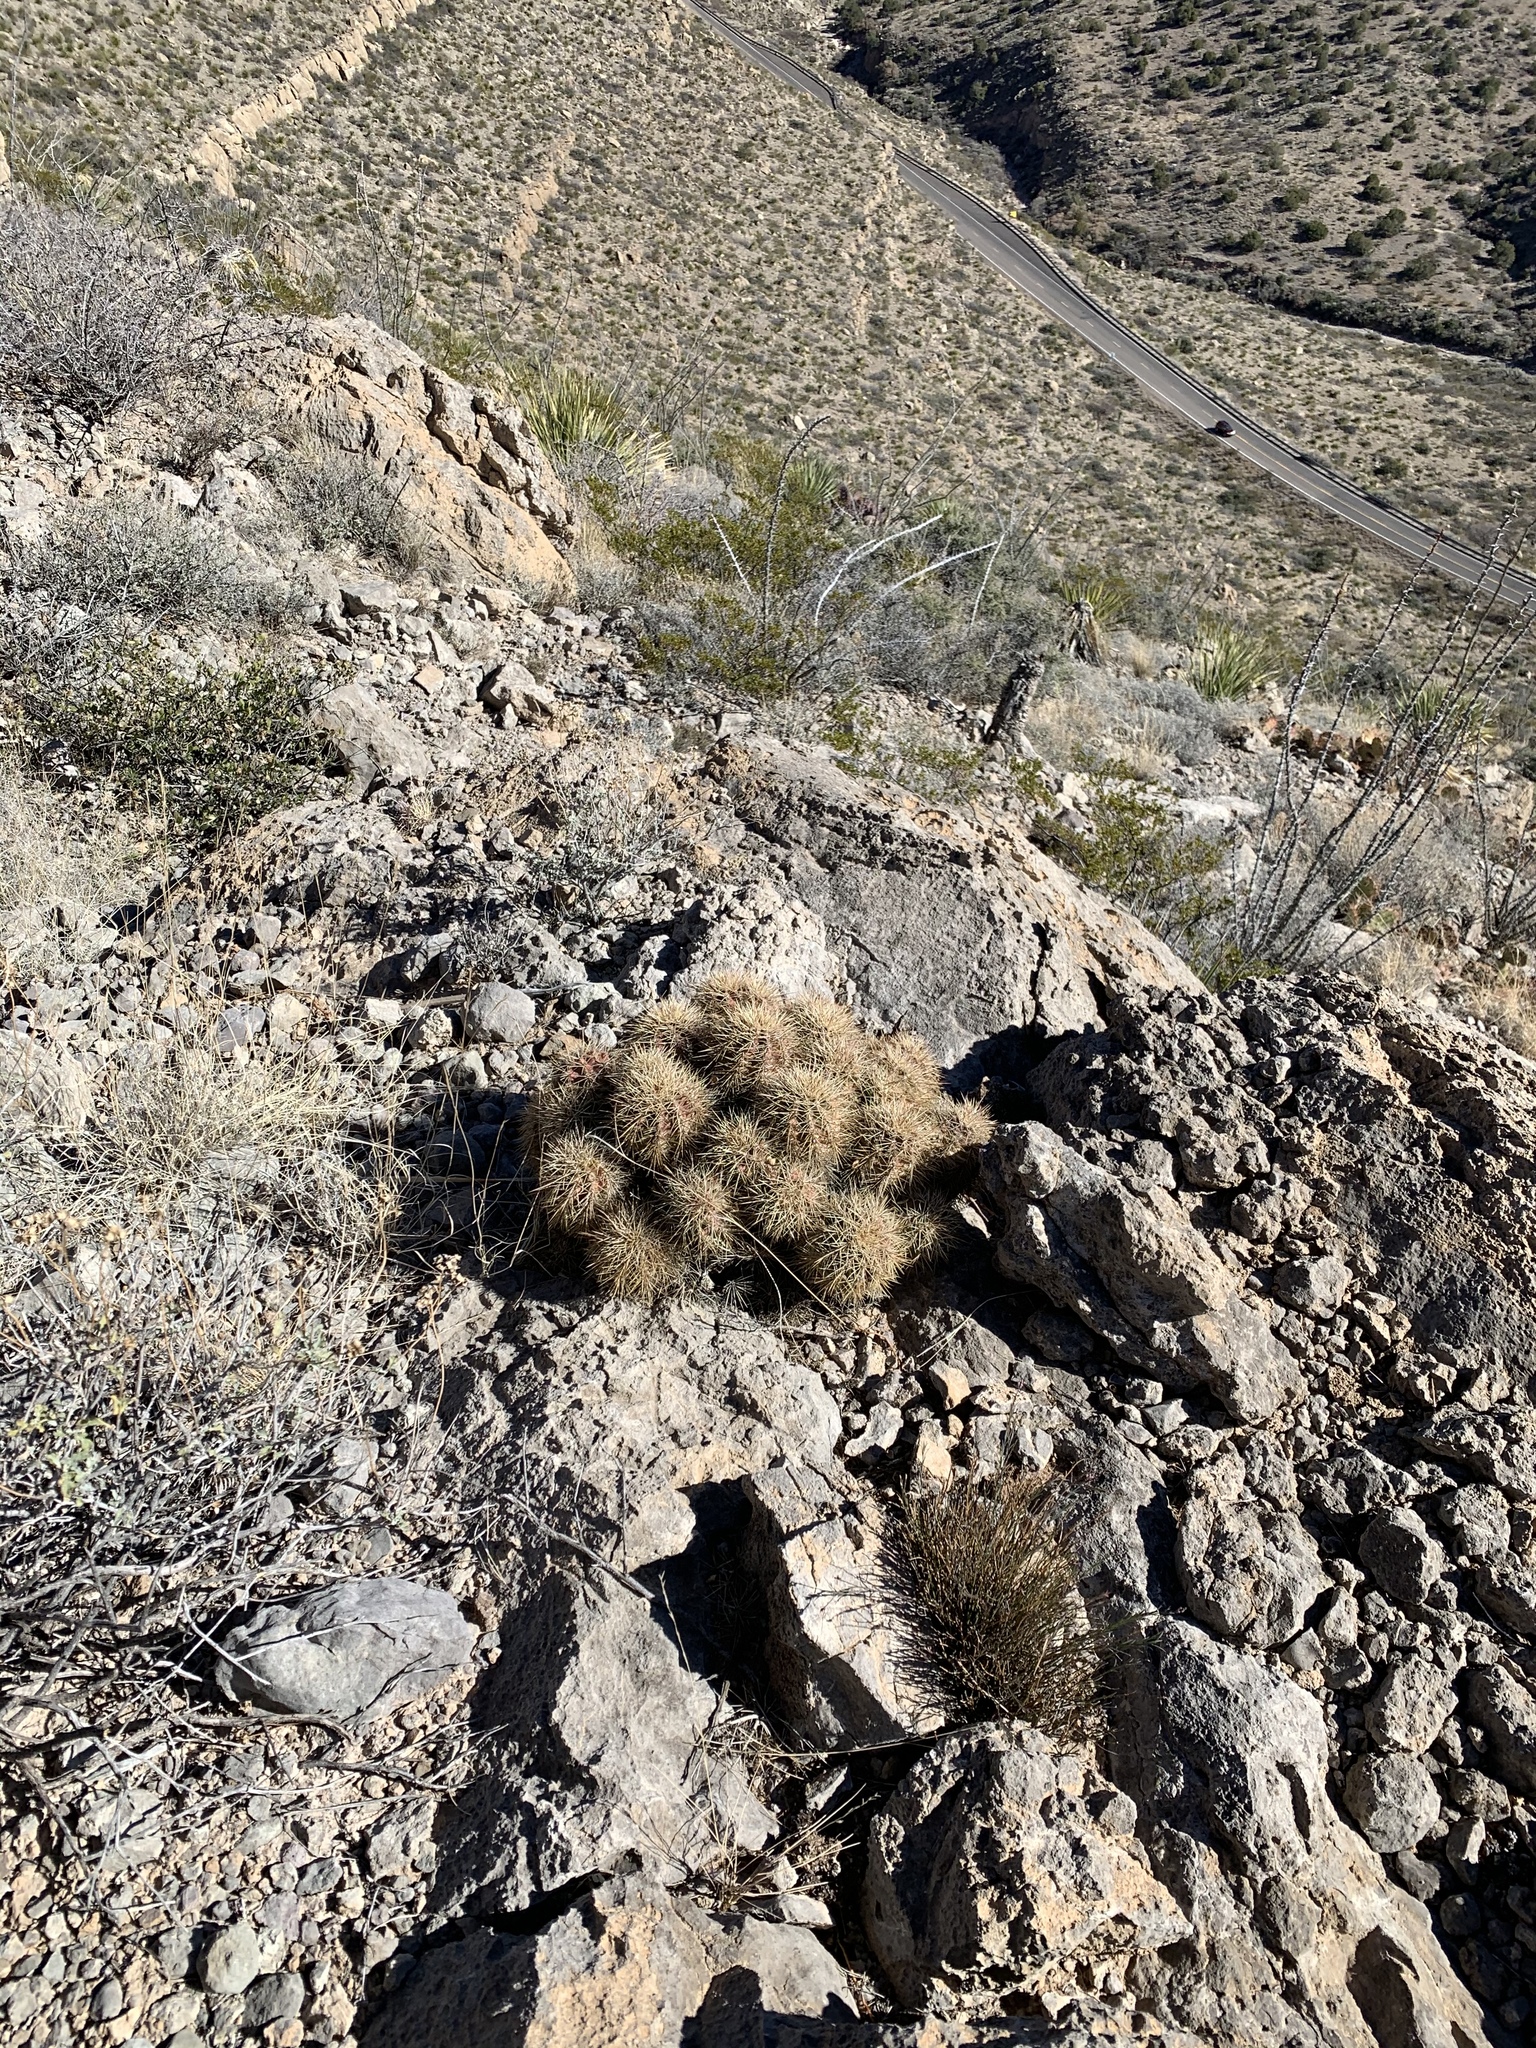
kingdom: Plantae
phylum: Tracheophyta
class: Magnoliopsida
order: Caryophyllales
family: Cactaceae
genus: Echinocereus
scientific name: Echinocereus coccineus
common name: Scarlet hedgehog cactus
